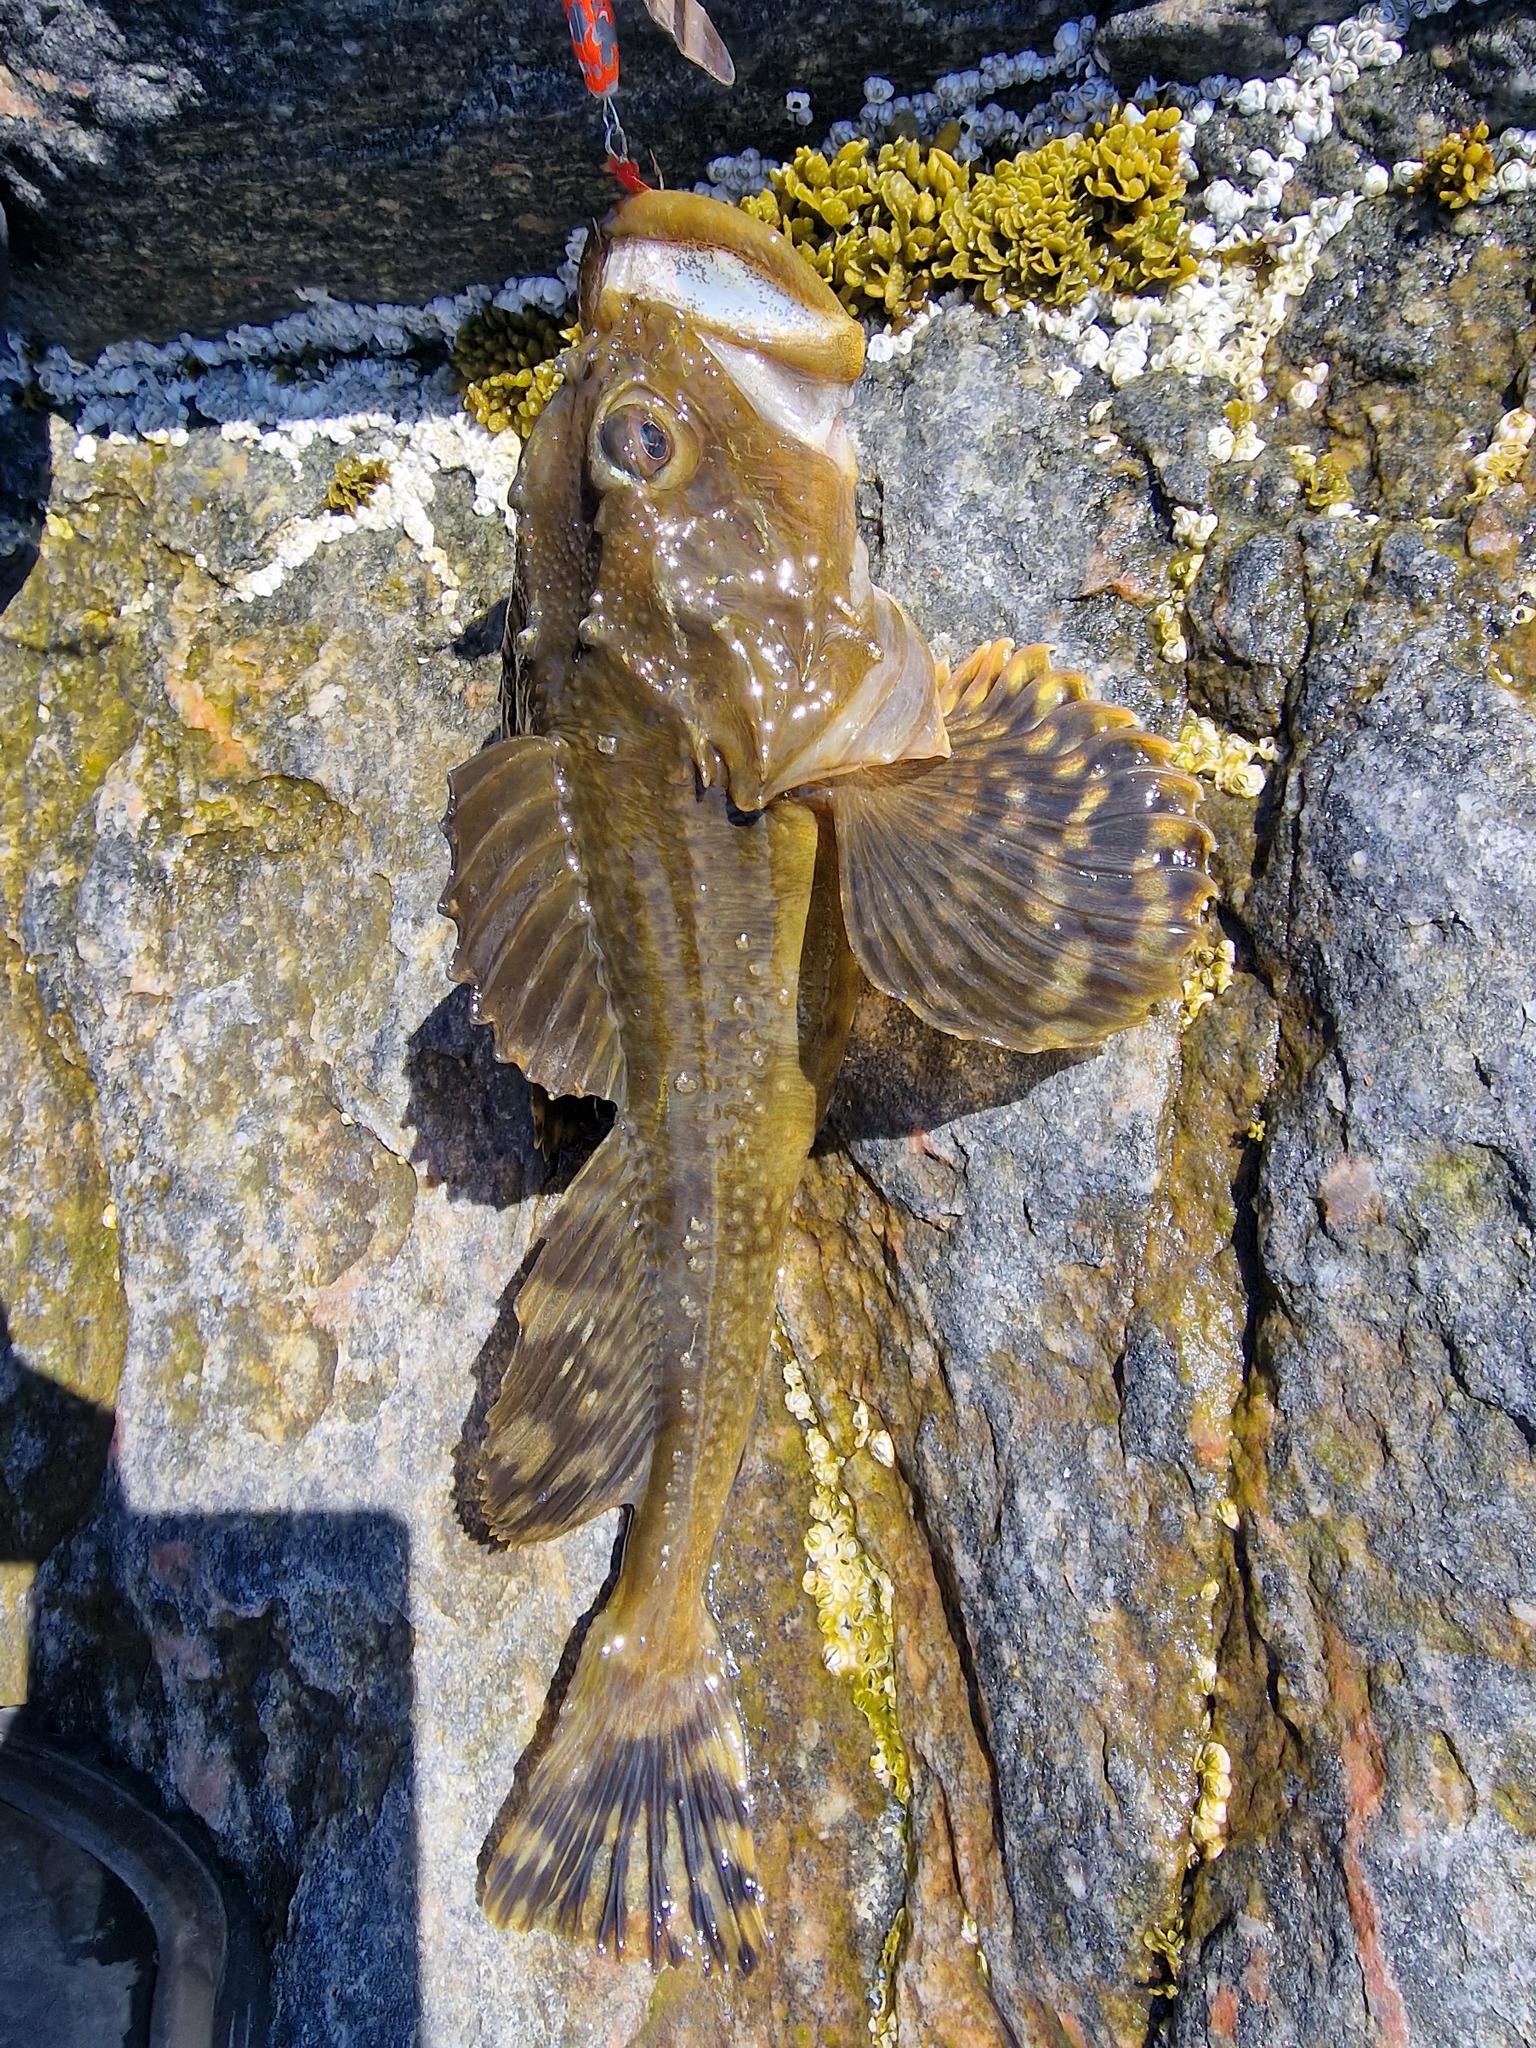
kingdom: Animalia
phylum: Chordata
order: Scorpaeniformes
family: Cottidae
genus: Myoxocephalus
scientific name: Myoxocephalus scorpius
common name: Shorthorn sculpin
